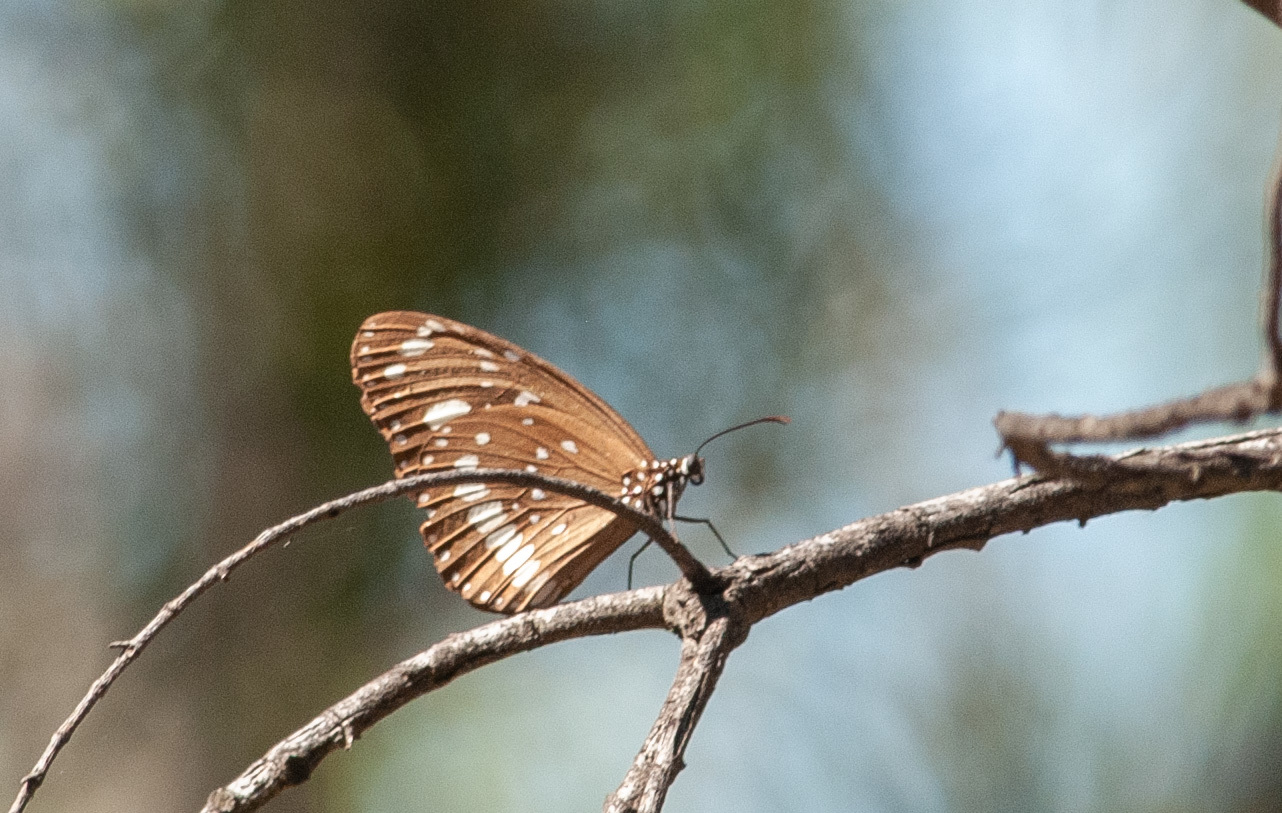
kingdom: Animalia
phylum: Arthropoda
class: Insecta
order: Lepidoptera
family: Nymphalidae
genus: Euploea
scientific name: Euploea core
